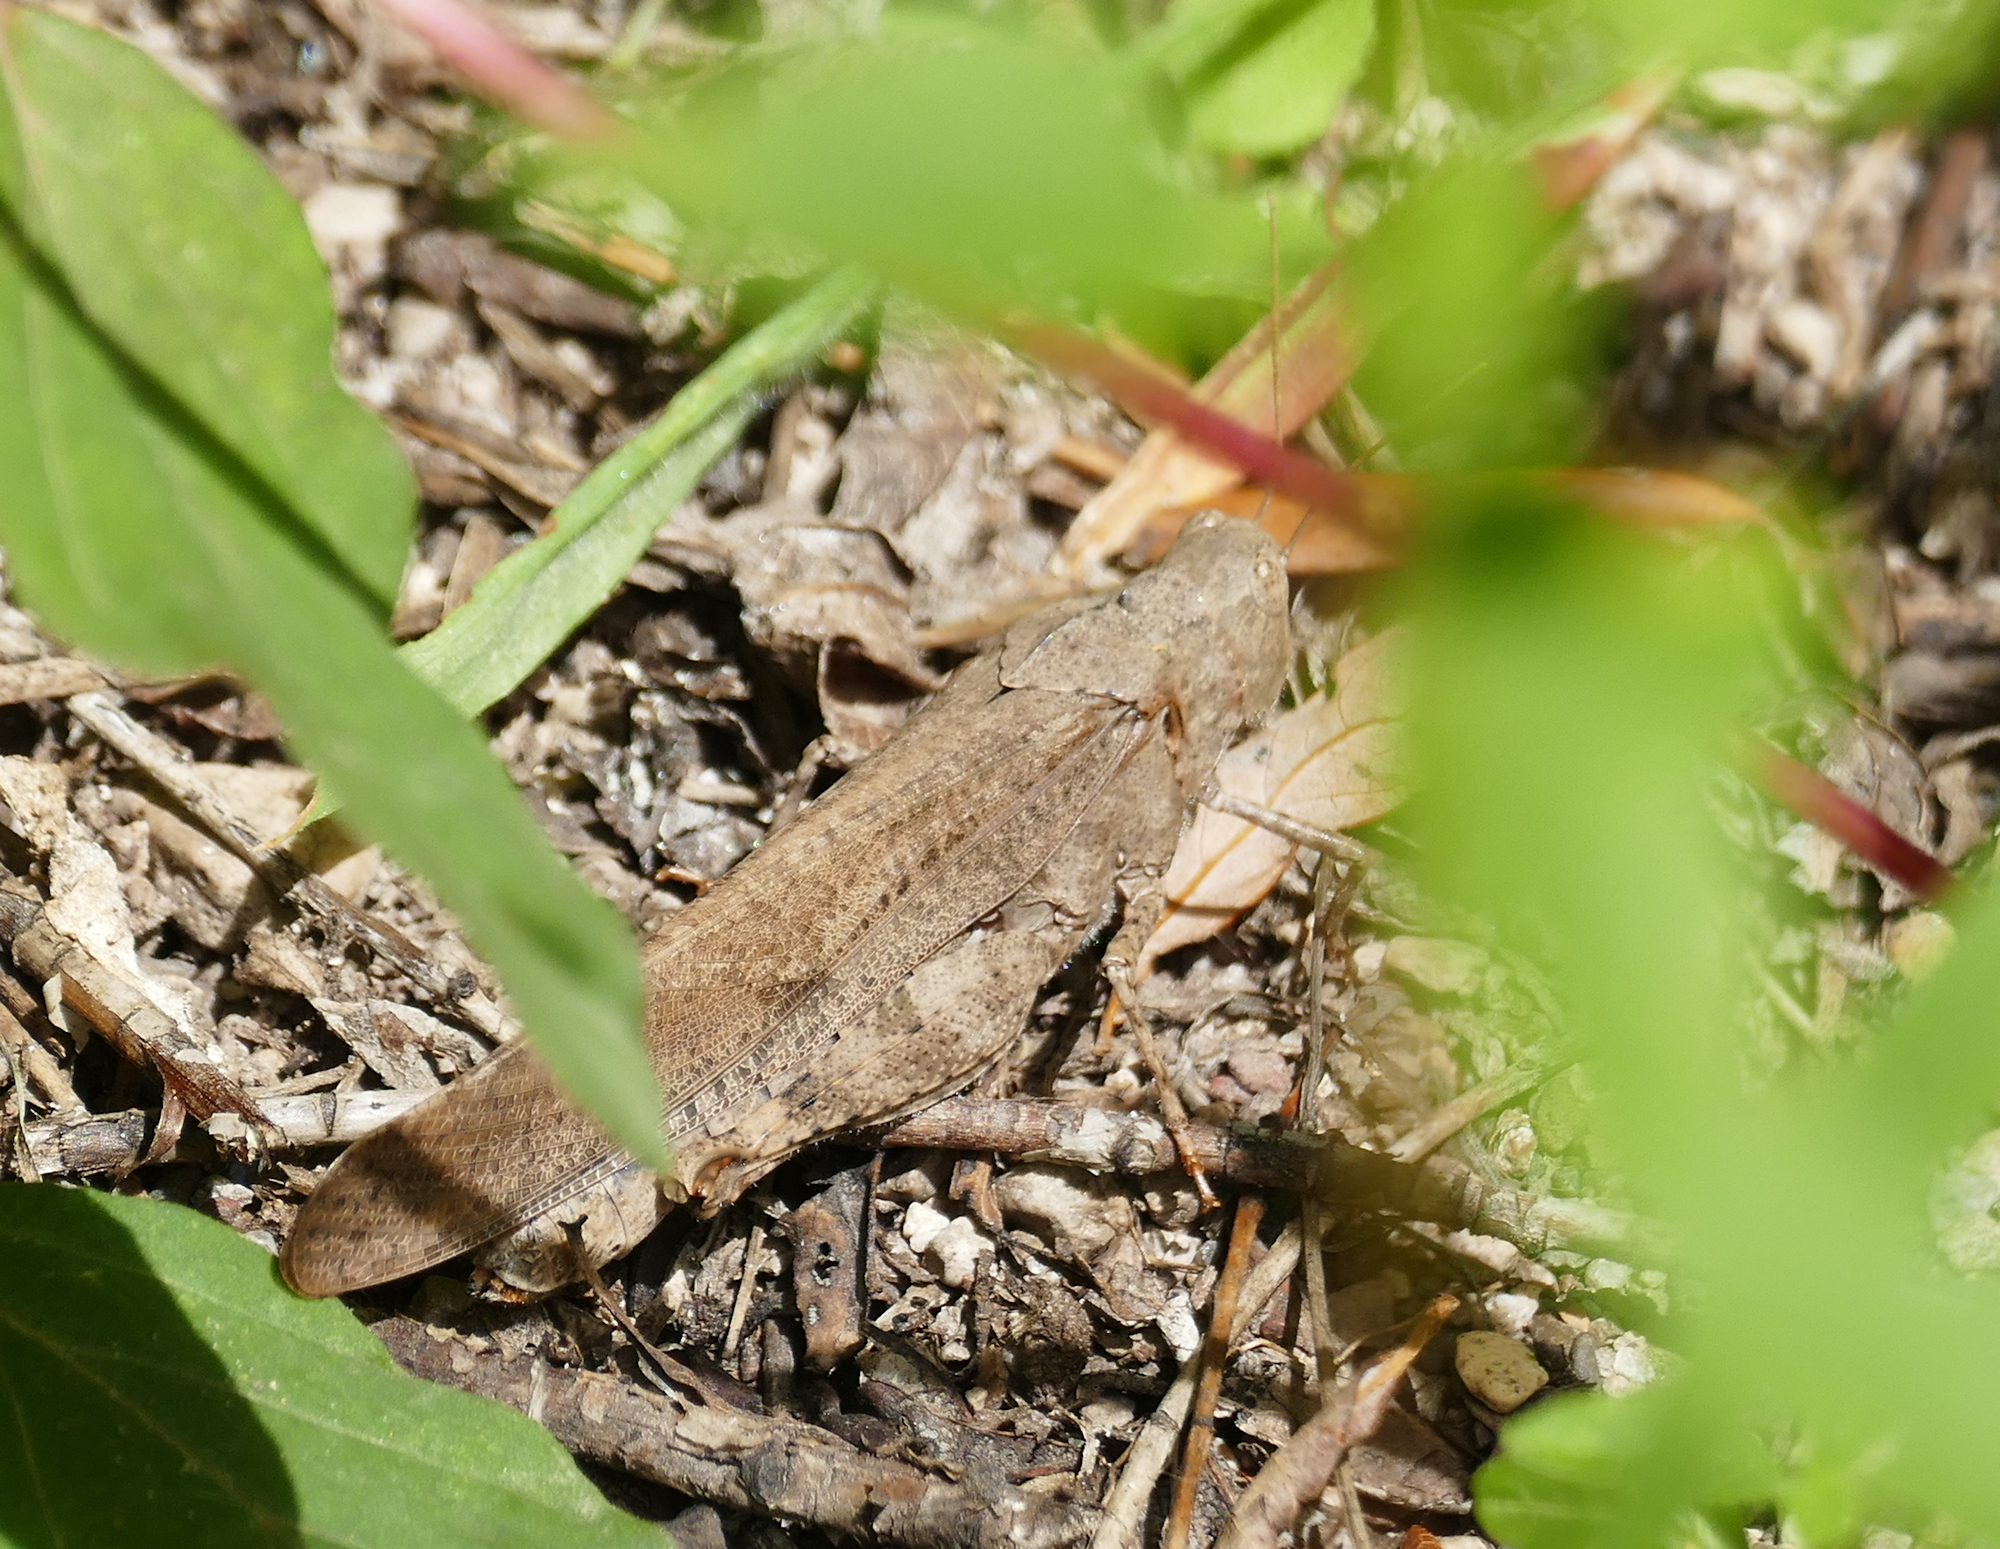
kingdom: Animalia
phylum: Arthropoda
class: Insecta
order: Orthoptera
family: Acrididae
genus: Dissosteira
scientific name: Dissosteira carolina
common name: Carolina grasshopper
